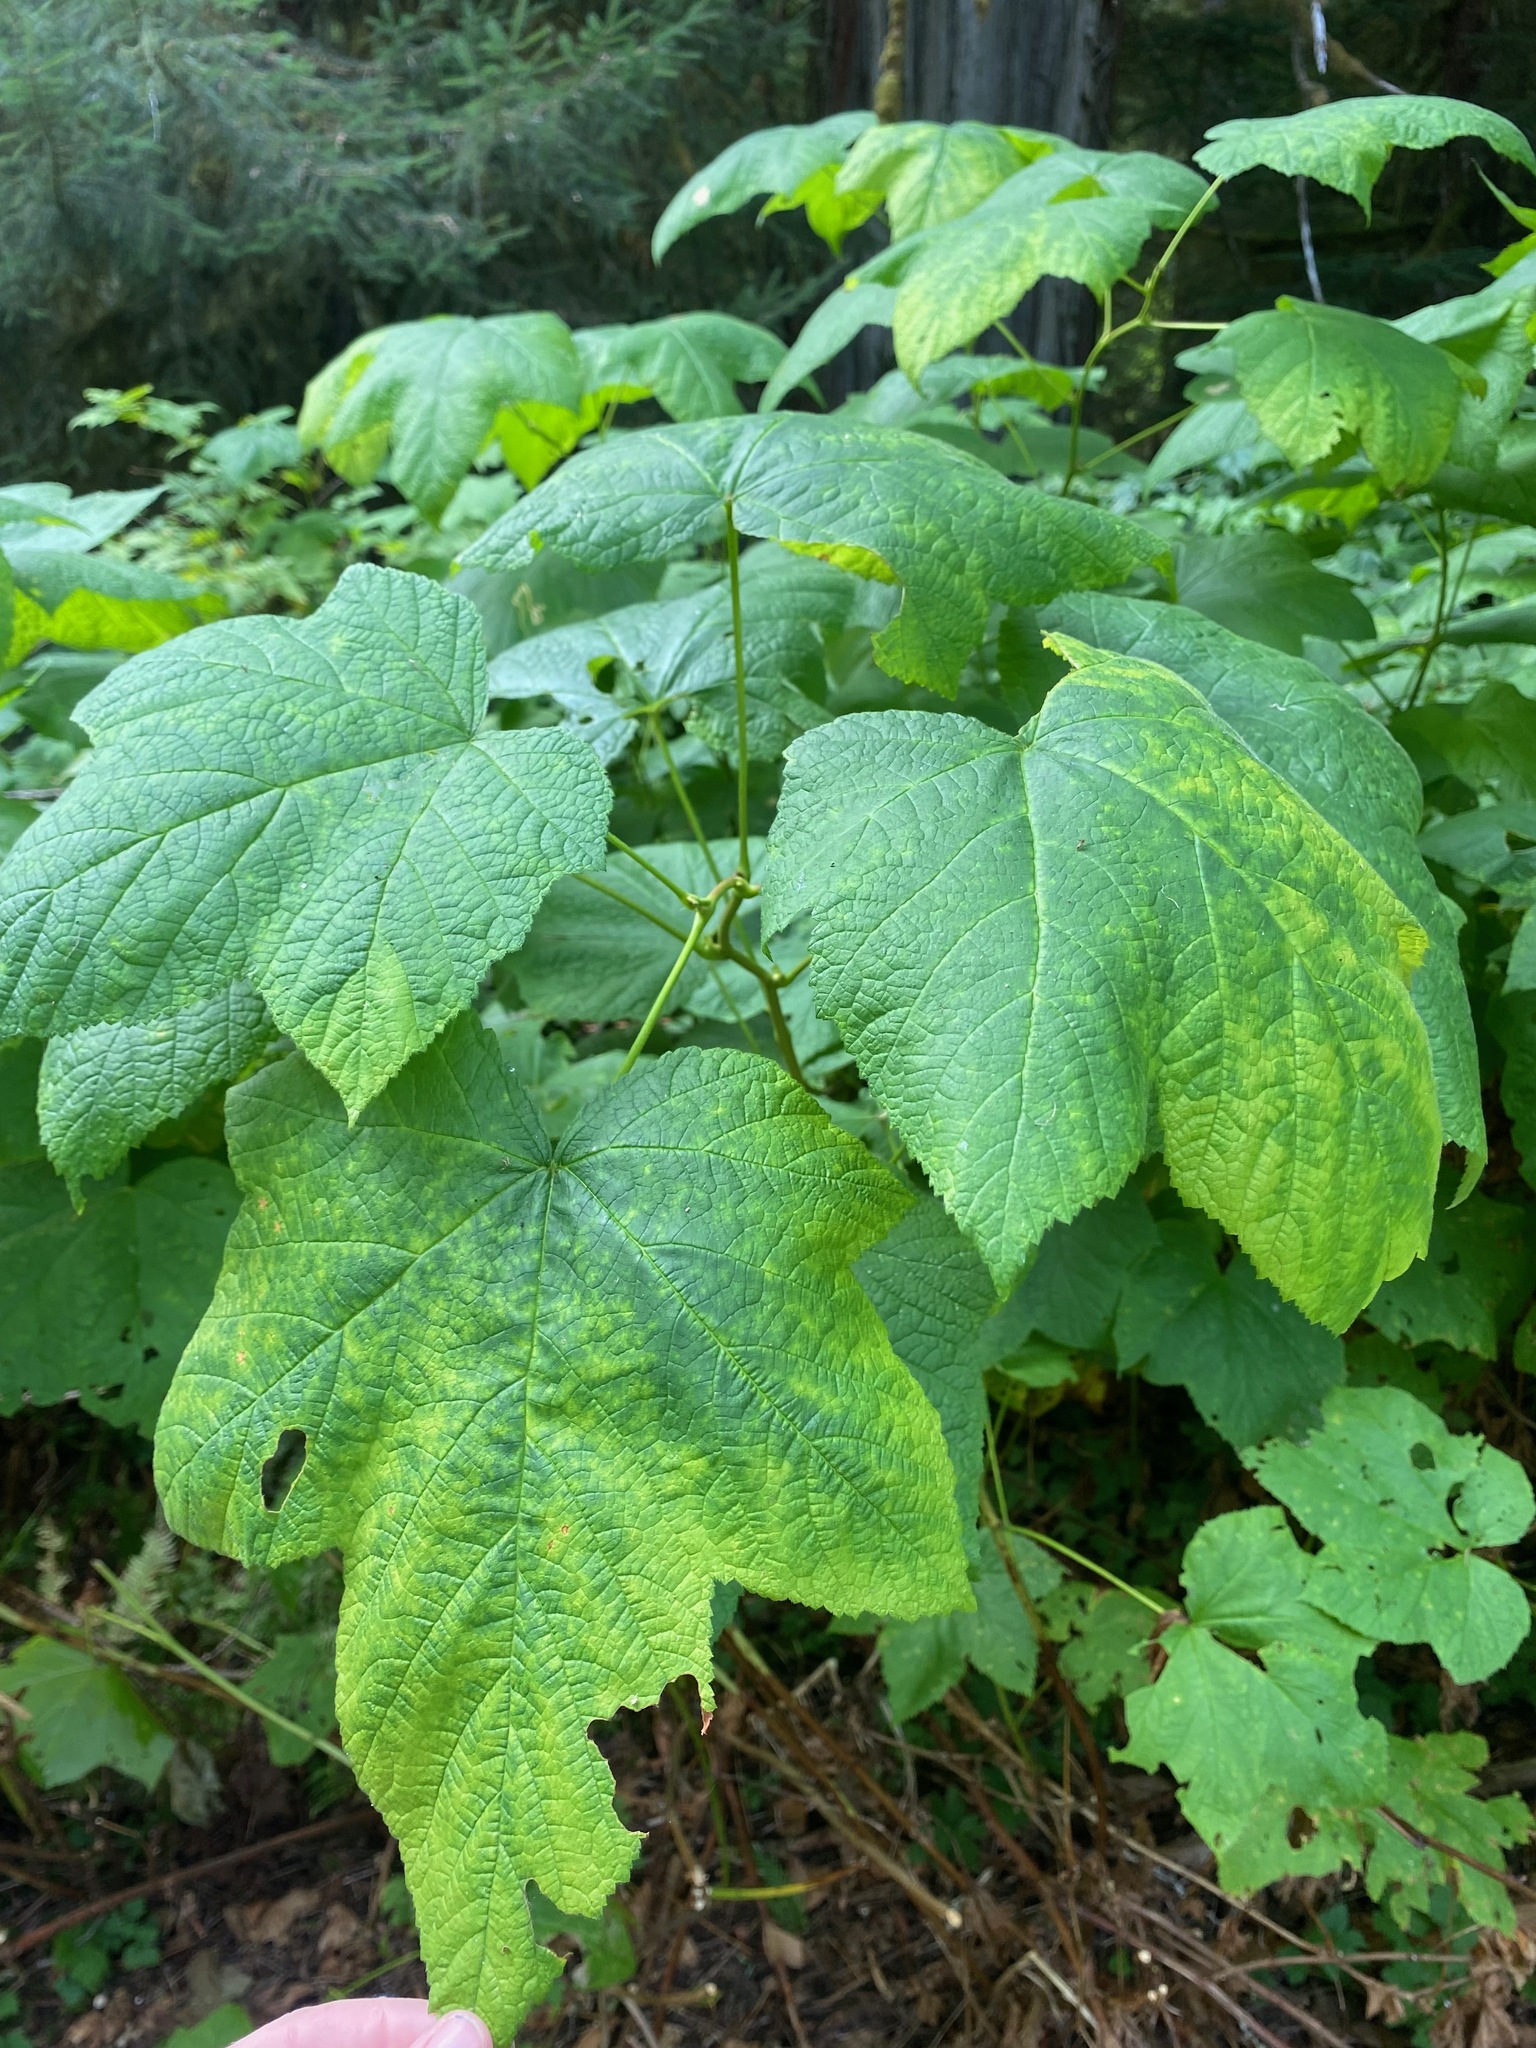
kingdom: Plantae
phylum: Tracheophyta
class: Magnoliopsida
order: Rosales
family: Rosaceae
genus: Rubus
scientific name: Rubus parviflorus
